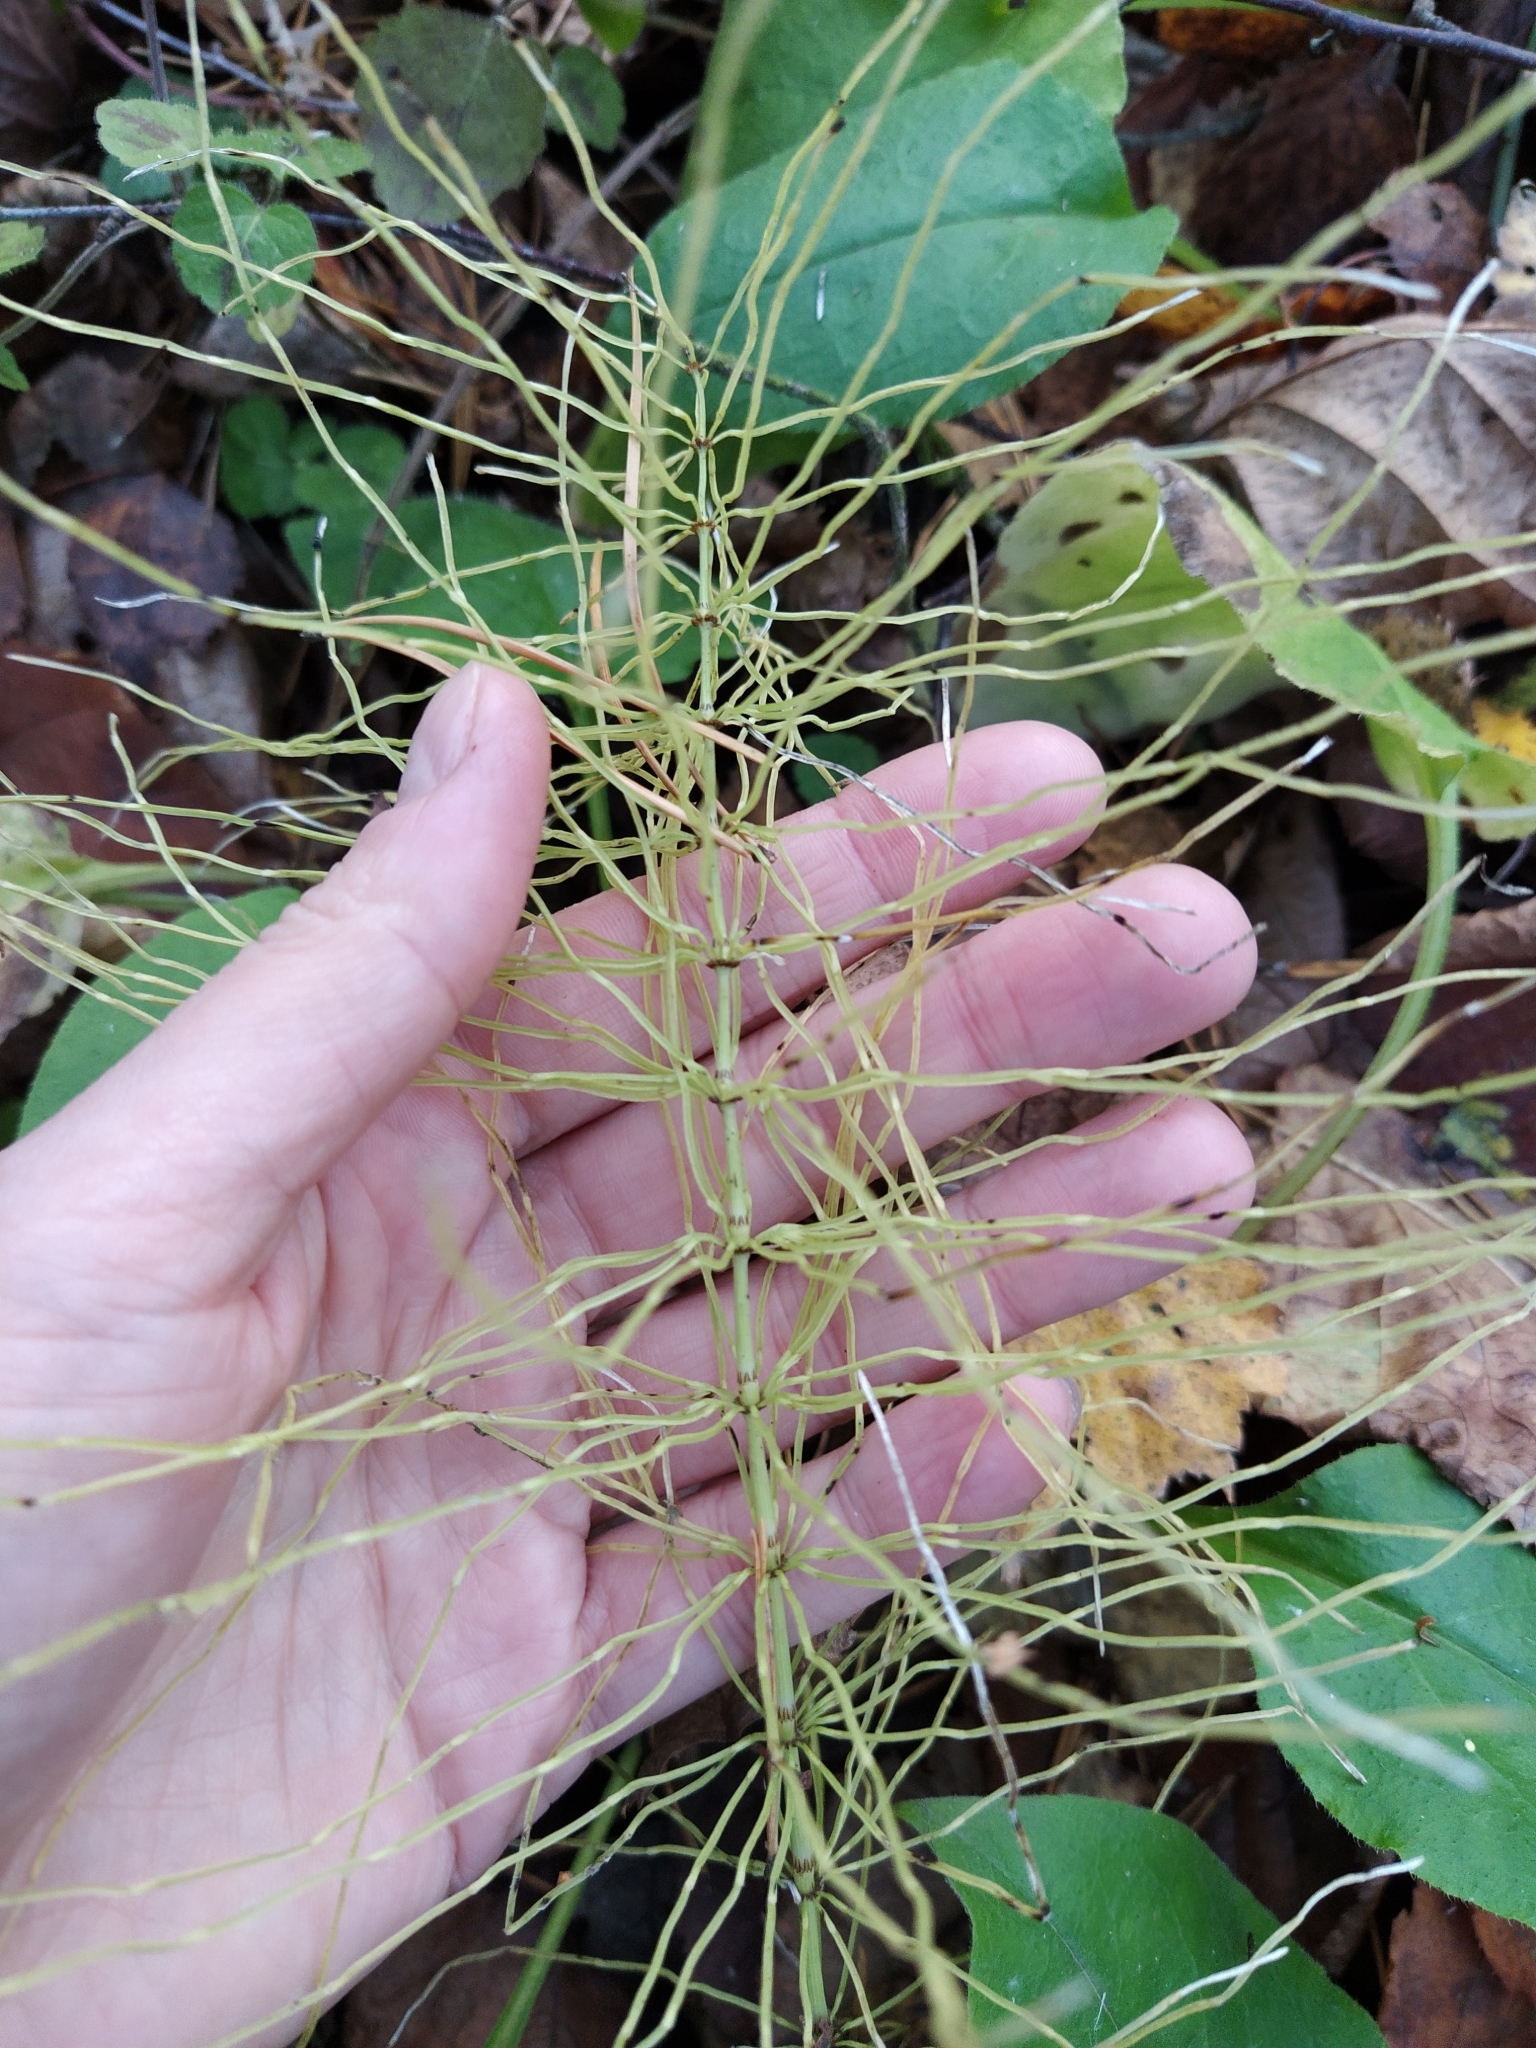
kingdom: Plantae
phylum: Tracheophyta
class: Polypodiopsida
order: Equisetales
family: Equisetaceae
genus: Equisetum
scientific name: Equisetum pratense
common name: Meadow horsetail
